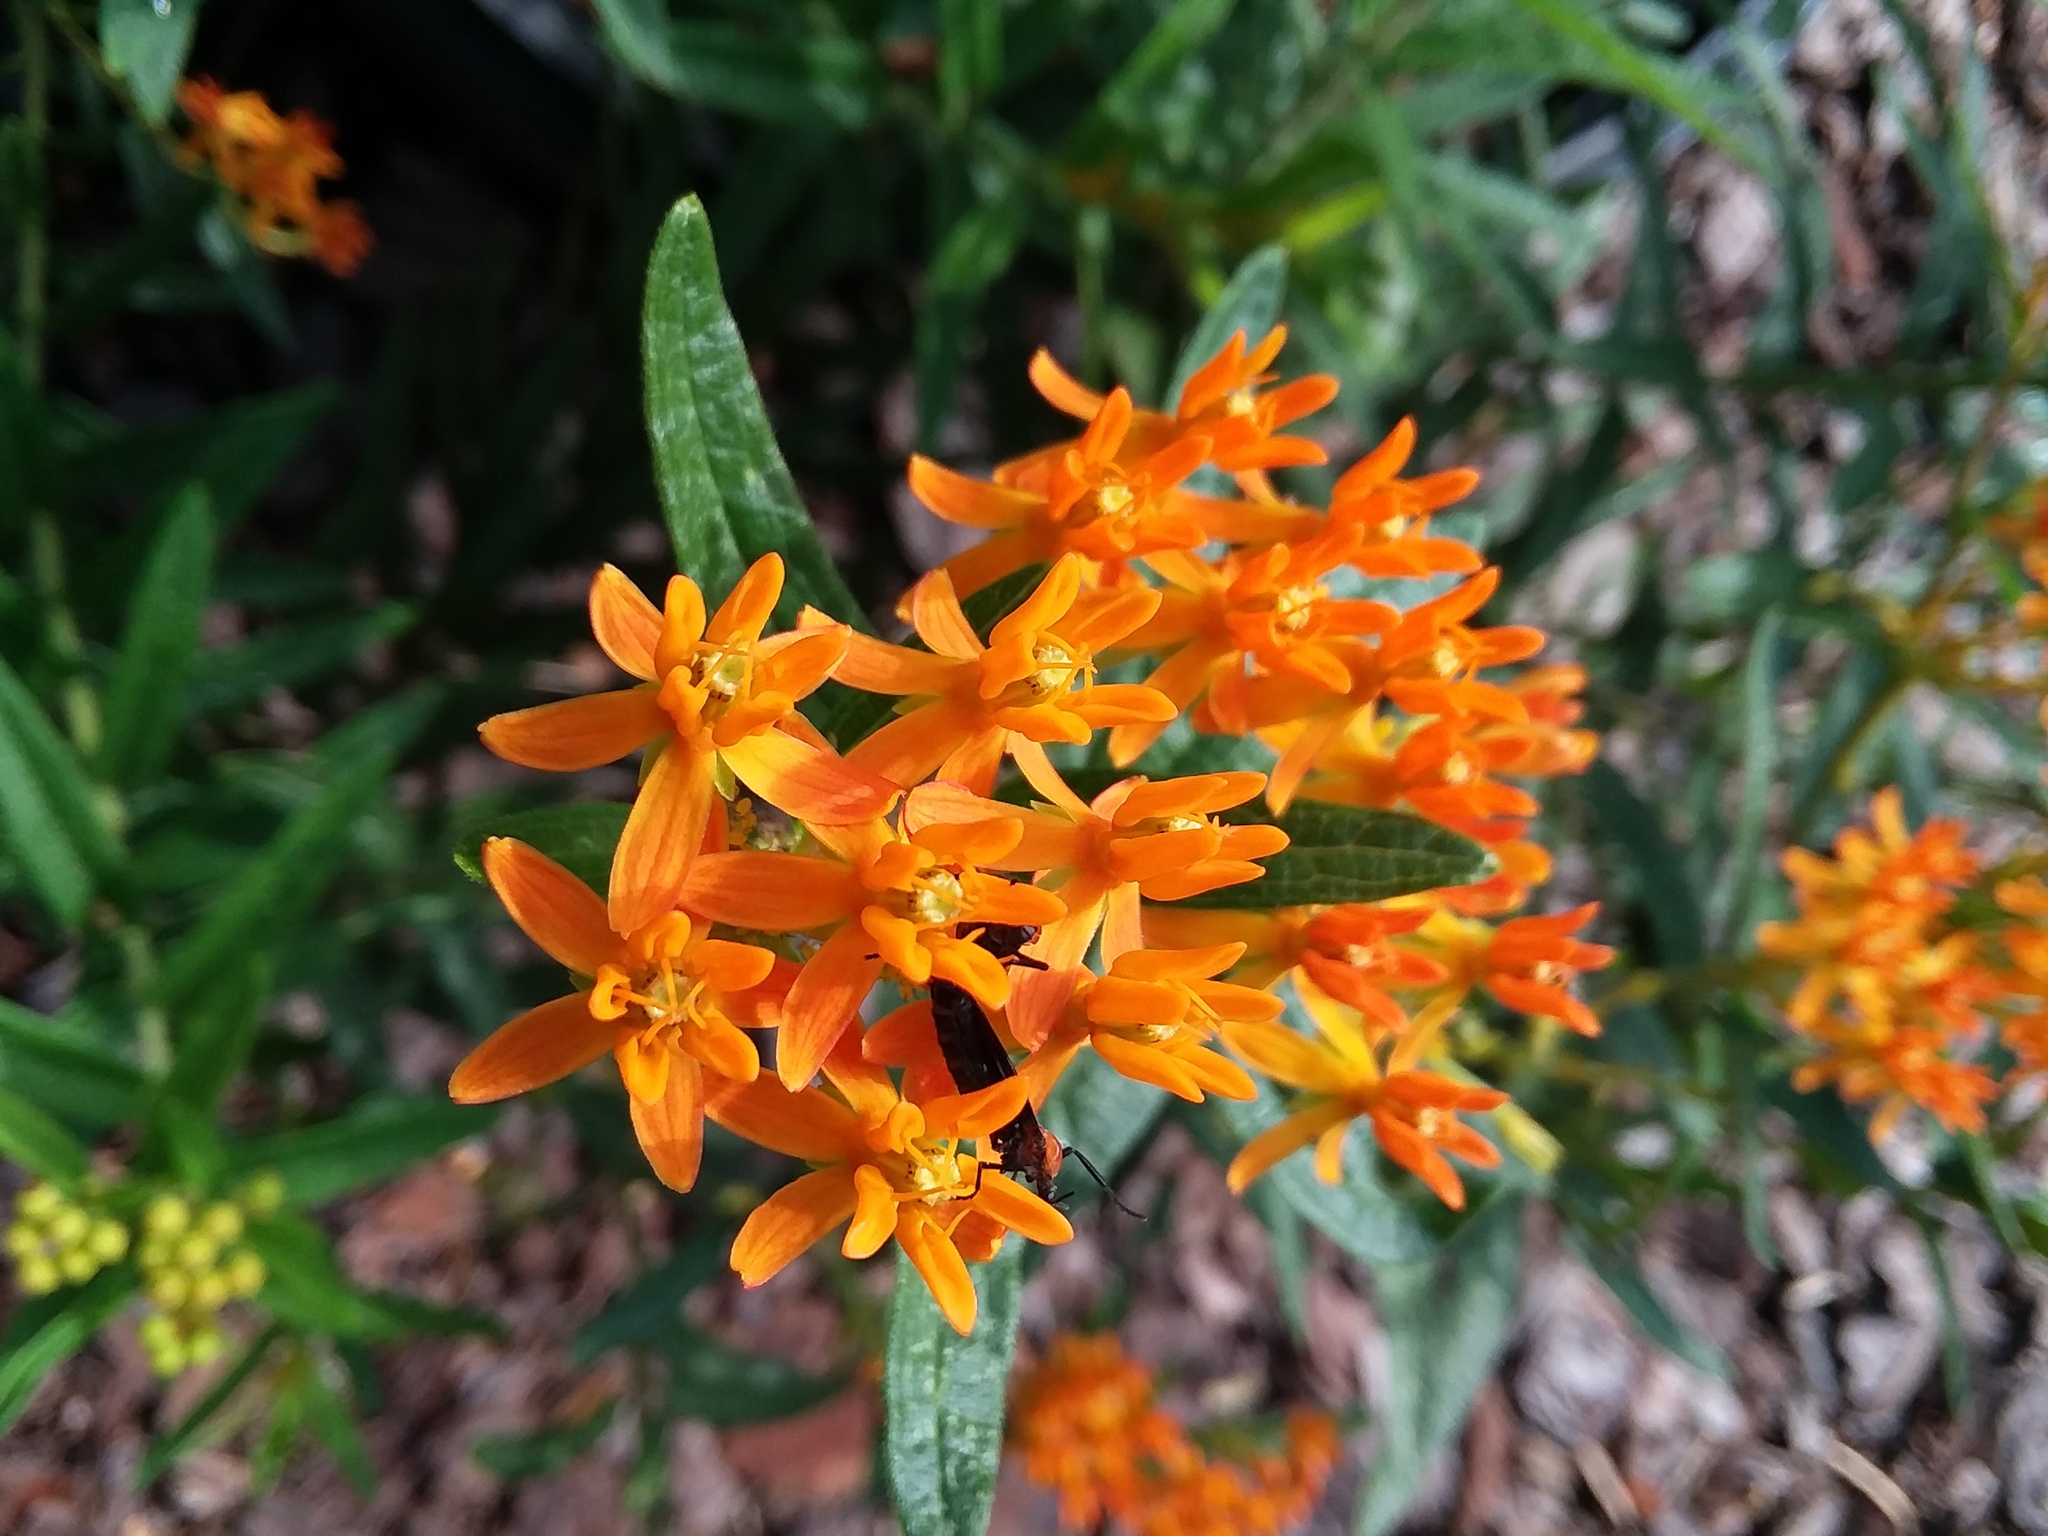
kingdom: Animalia
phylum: Arthropoda
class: Insecta
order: Diptera
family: Bibionidae
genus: Plecia
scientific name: Plecia nearctica
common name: March fly
